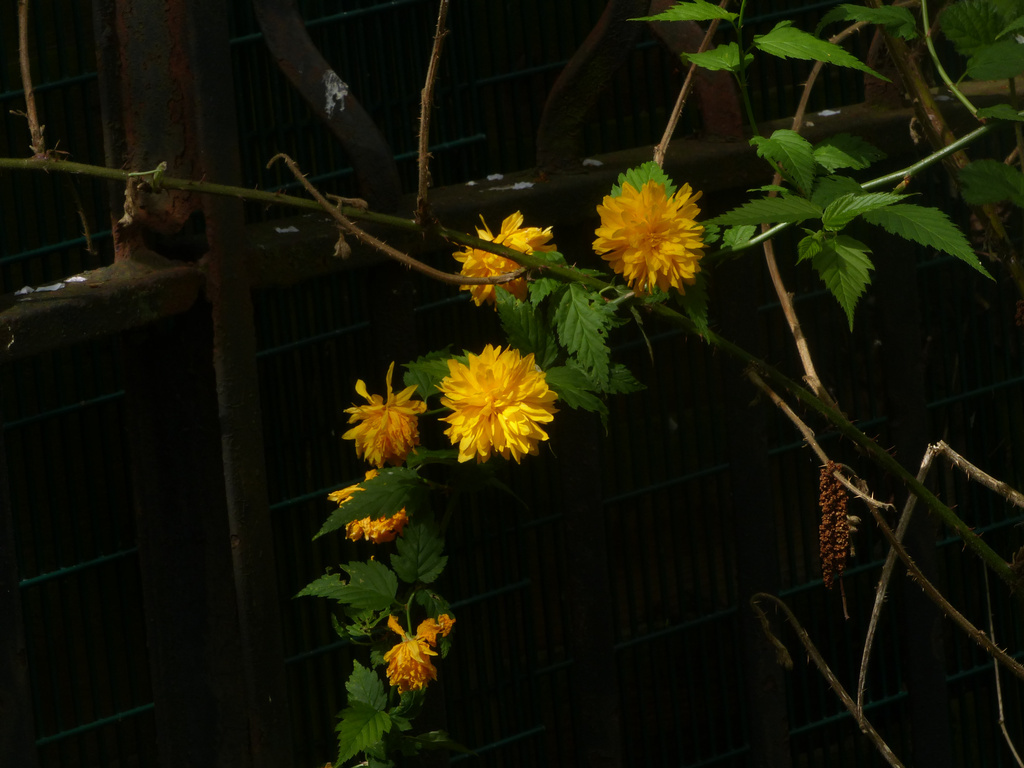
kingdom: Plantae
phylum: Tracheophyta
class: Magnoliopsida
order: Rosales
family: Rosaceae
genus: Kerria
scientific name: Kerria japonica
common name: Japanese kerria
